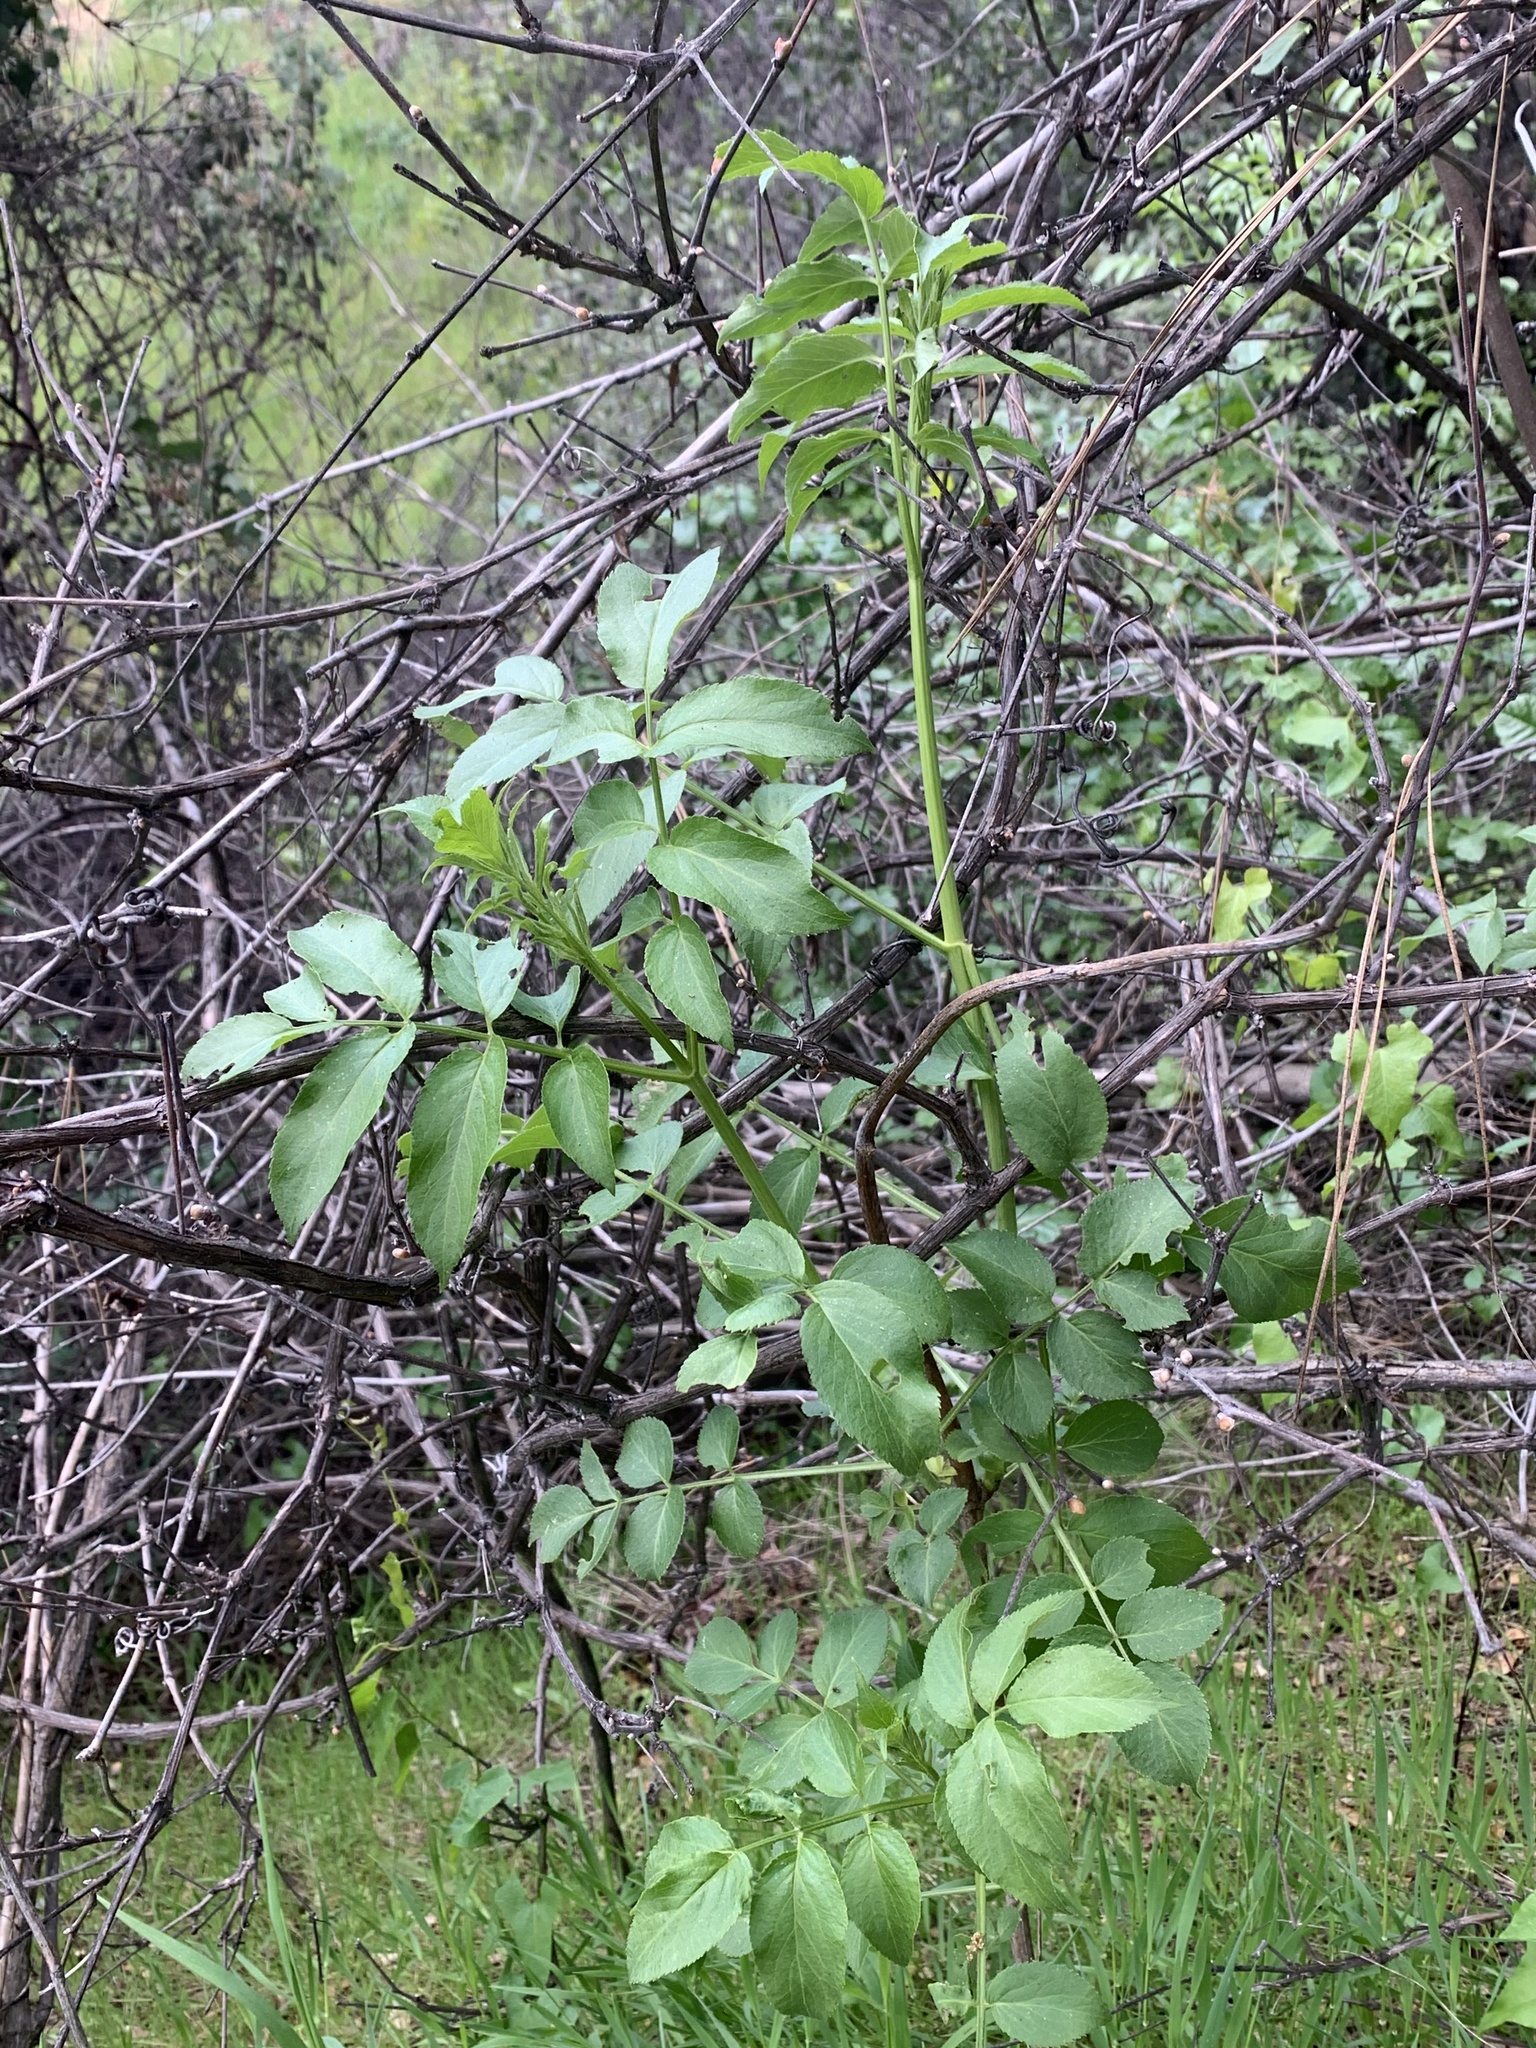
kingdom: Plantae
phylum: Tracheophyta
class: Magnoliopsida
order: Dipsacales
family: Viburnaceae
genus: Sambucus
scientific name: Sambucus cerulea
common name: Blue elder
